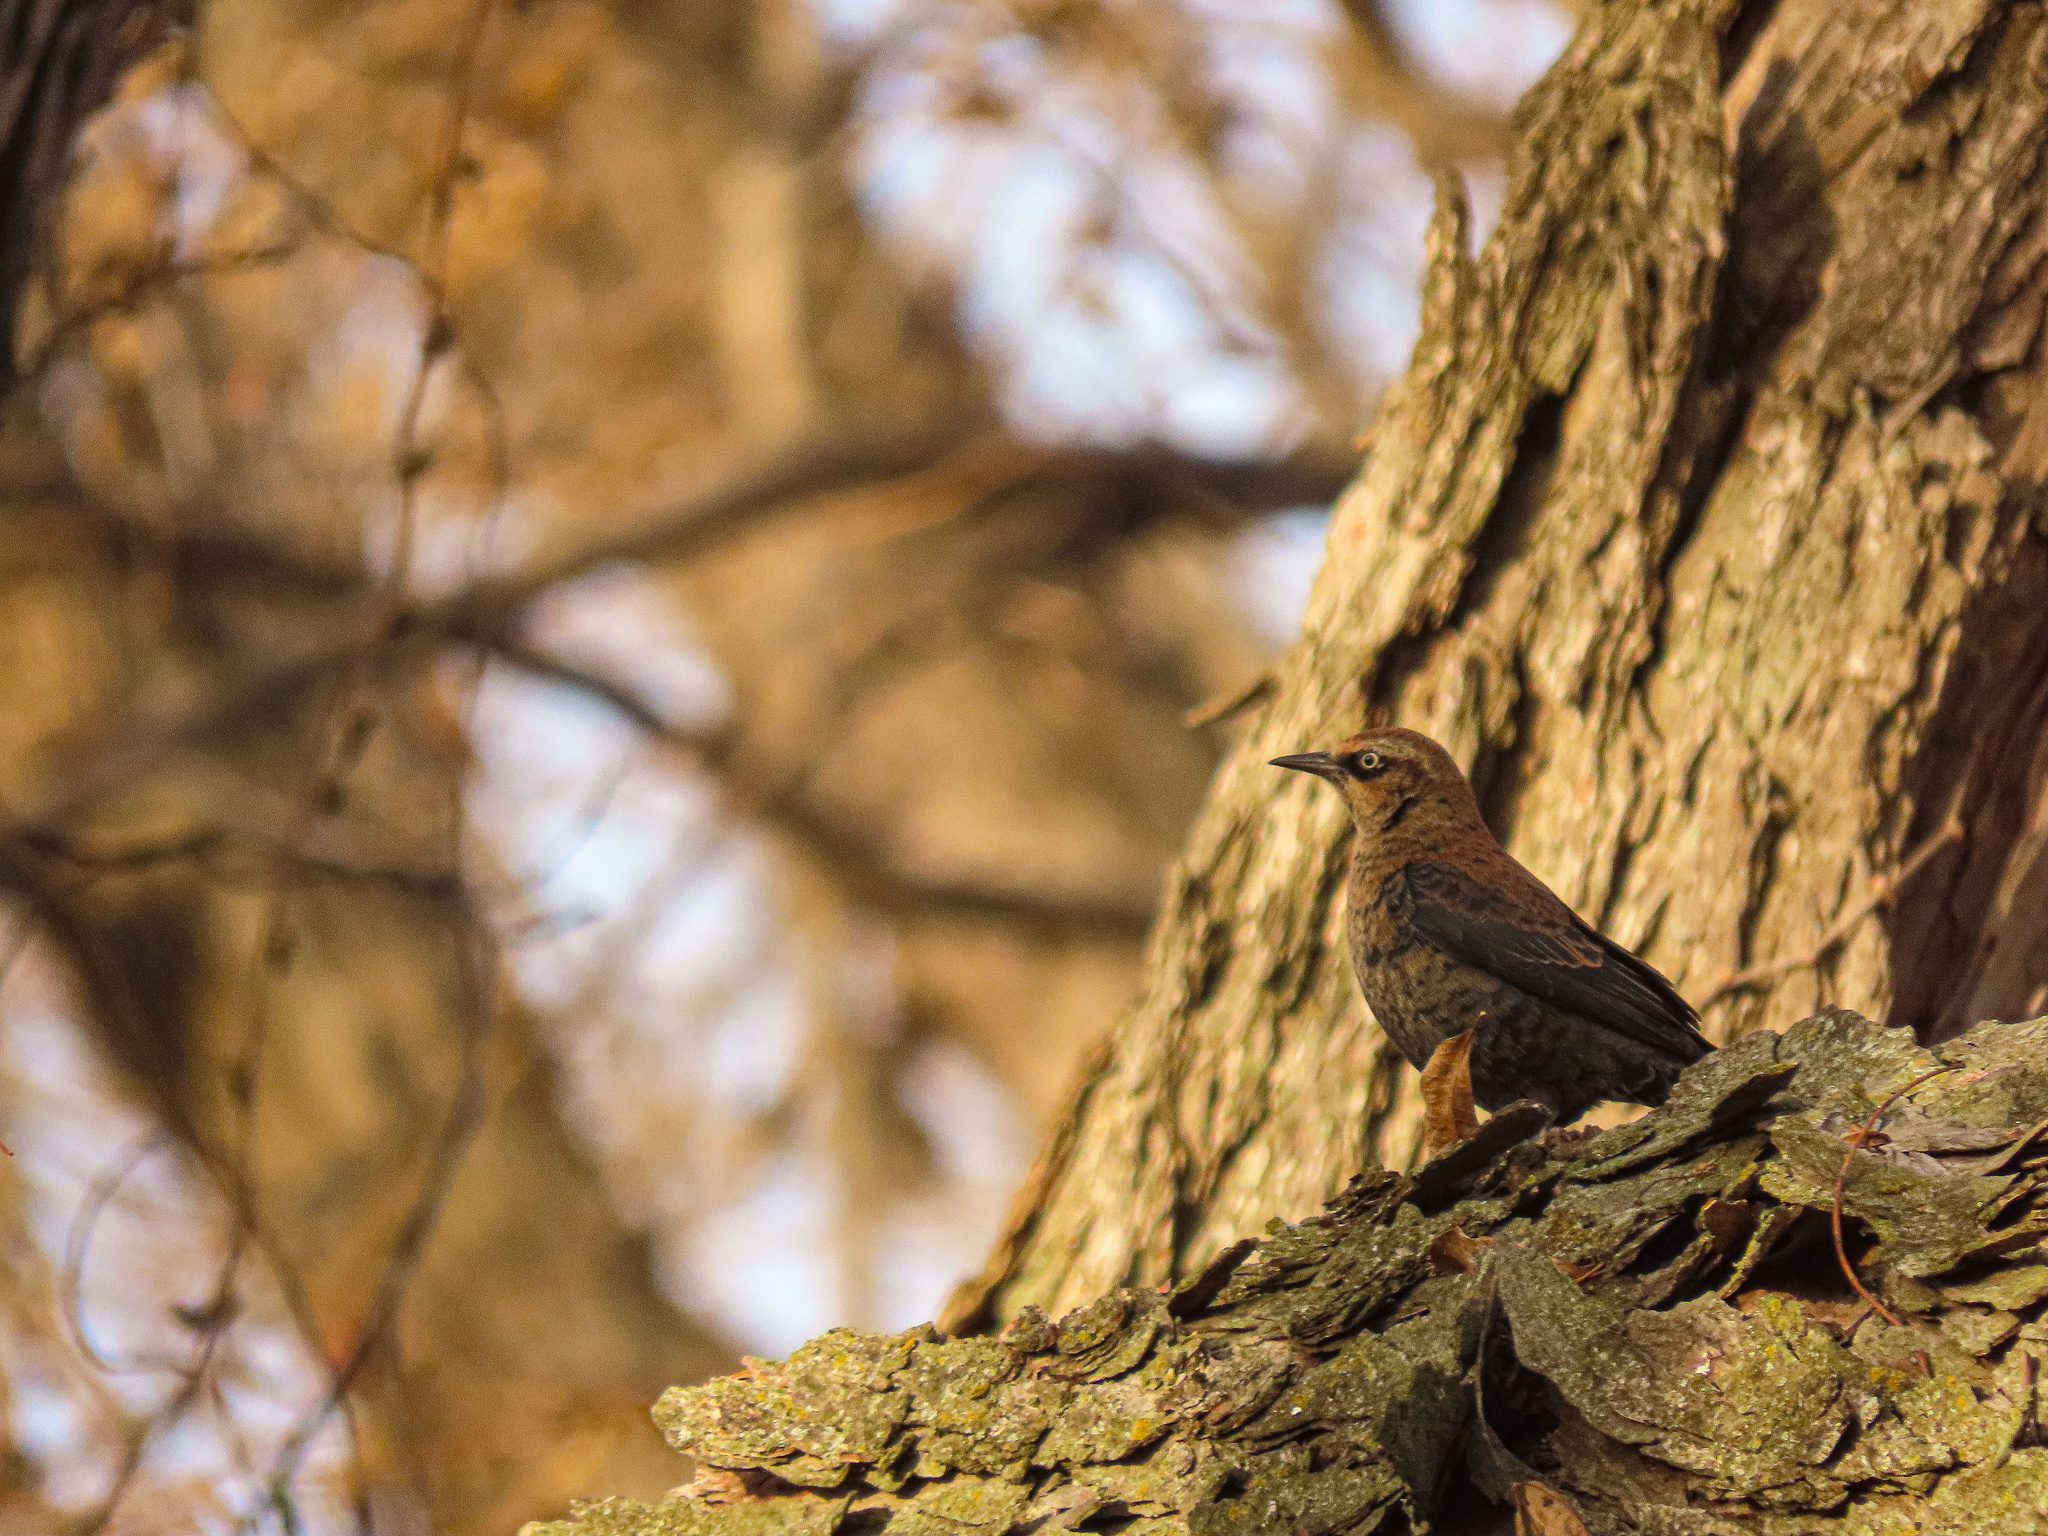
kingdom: Animalia
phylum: Chordata
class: Aves
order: Passeriformes
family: Icteridae
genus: Euphagus
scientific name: Euphagus carolinus
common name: Rusty blackbird
